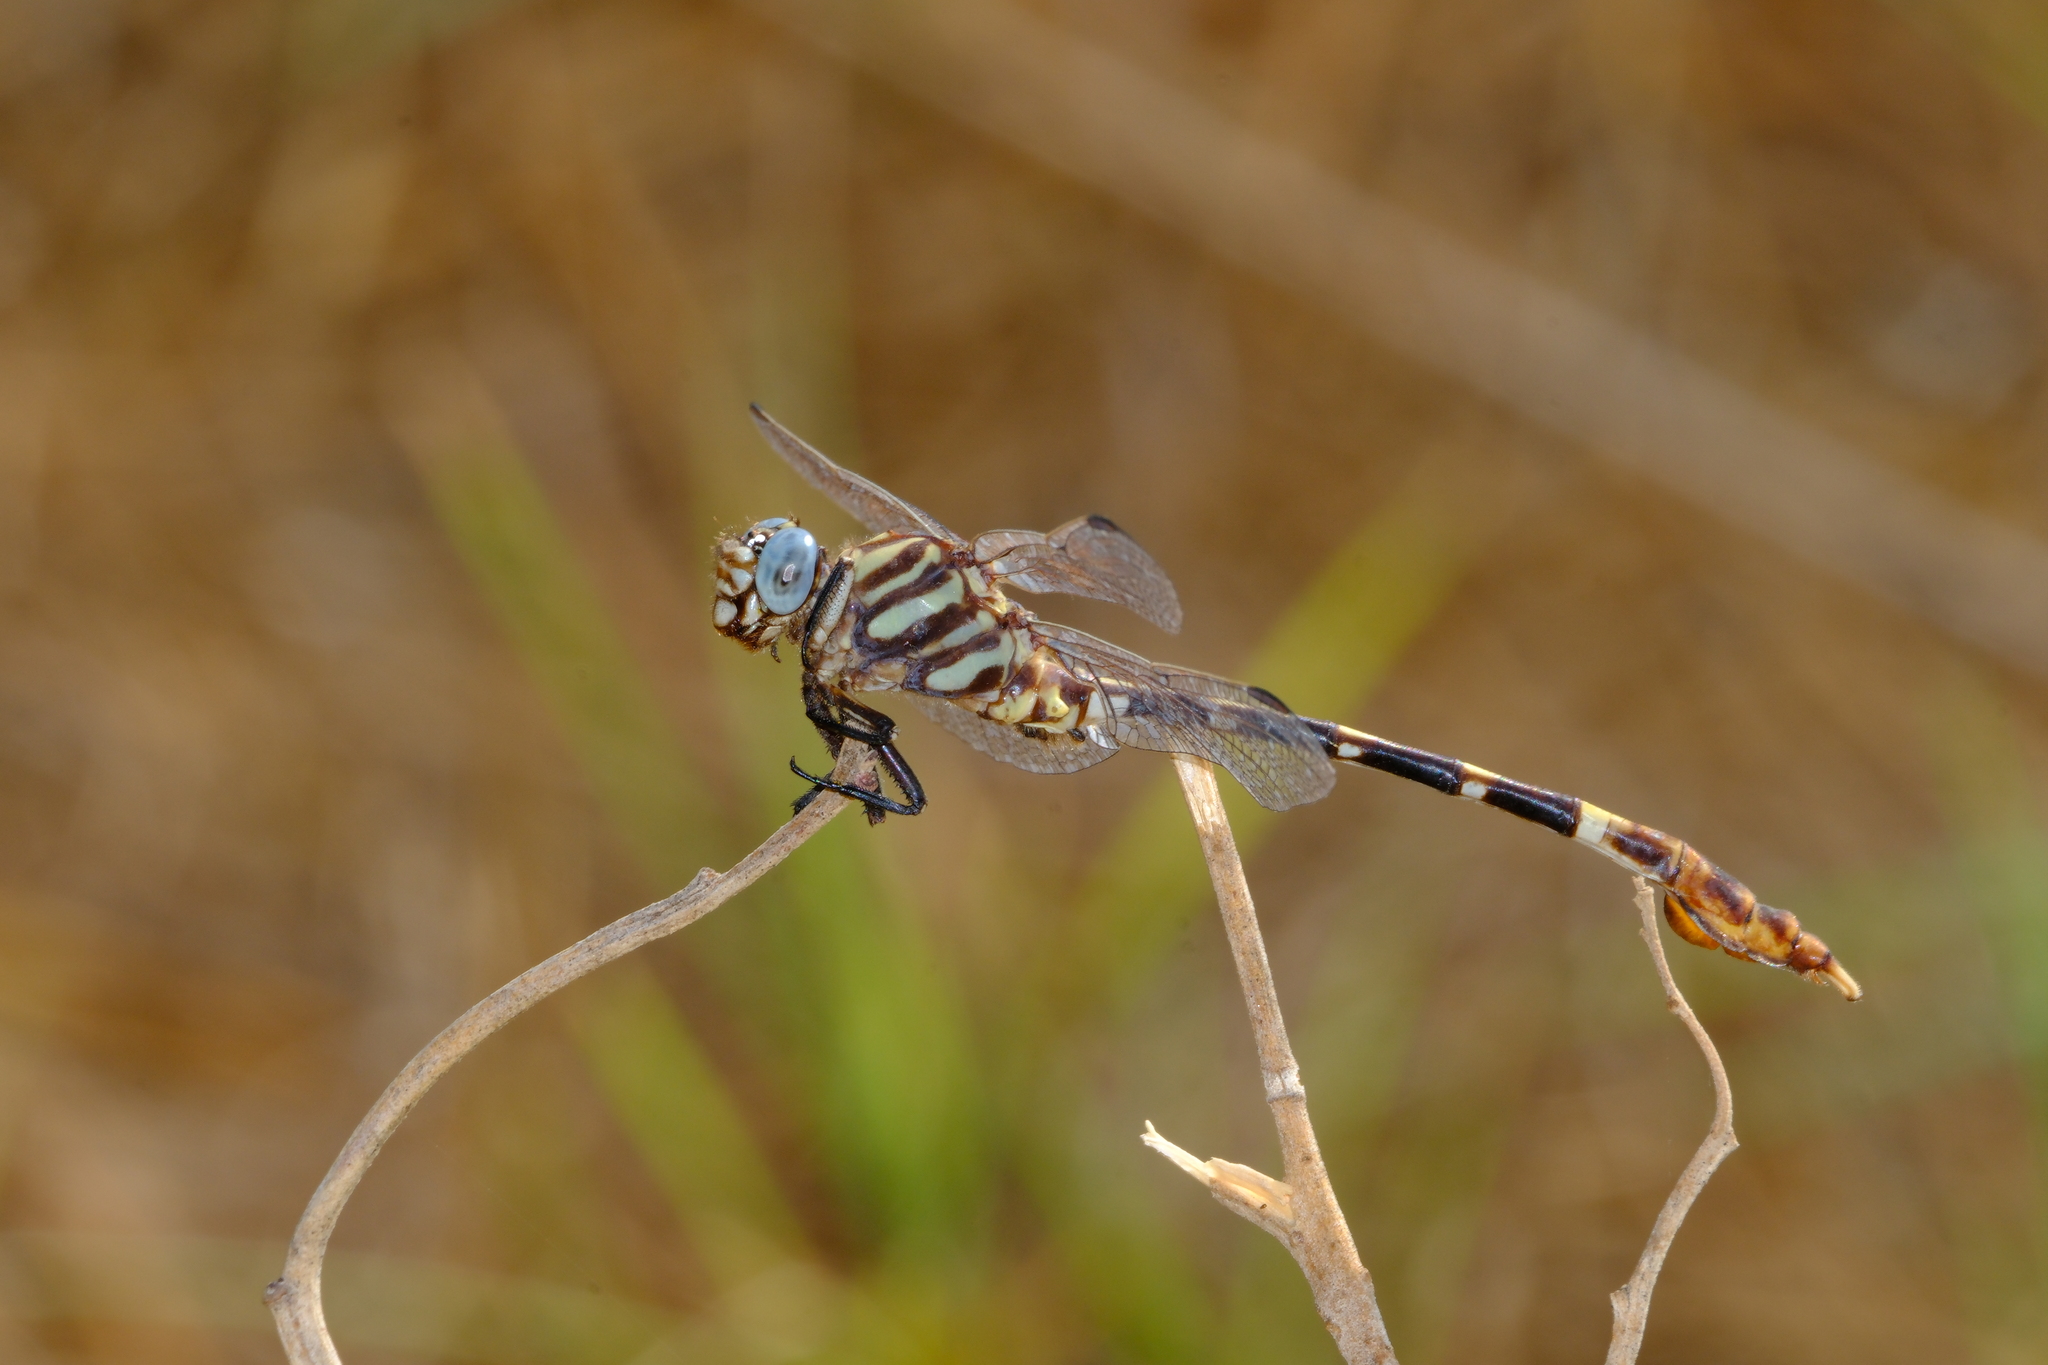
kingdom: Animalia
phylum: Arthropoda
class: Insecta
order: Odonata
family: Gomphidae
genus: Phyllogomphoides
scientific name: Phyllogomphoides albrighti
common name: Five-striped leaftail
